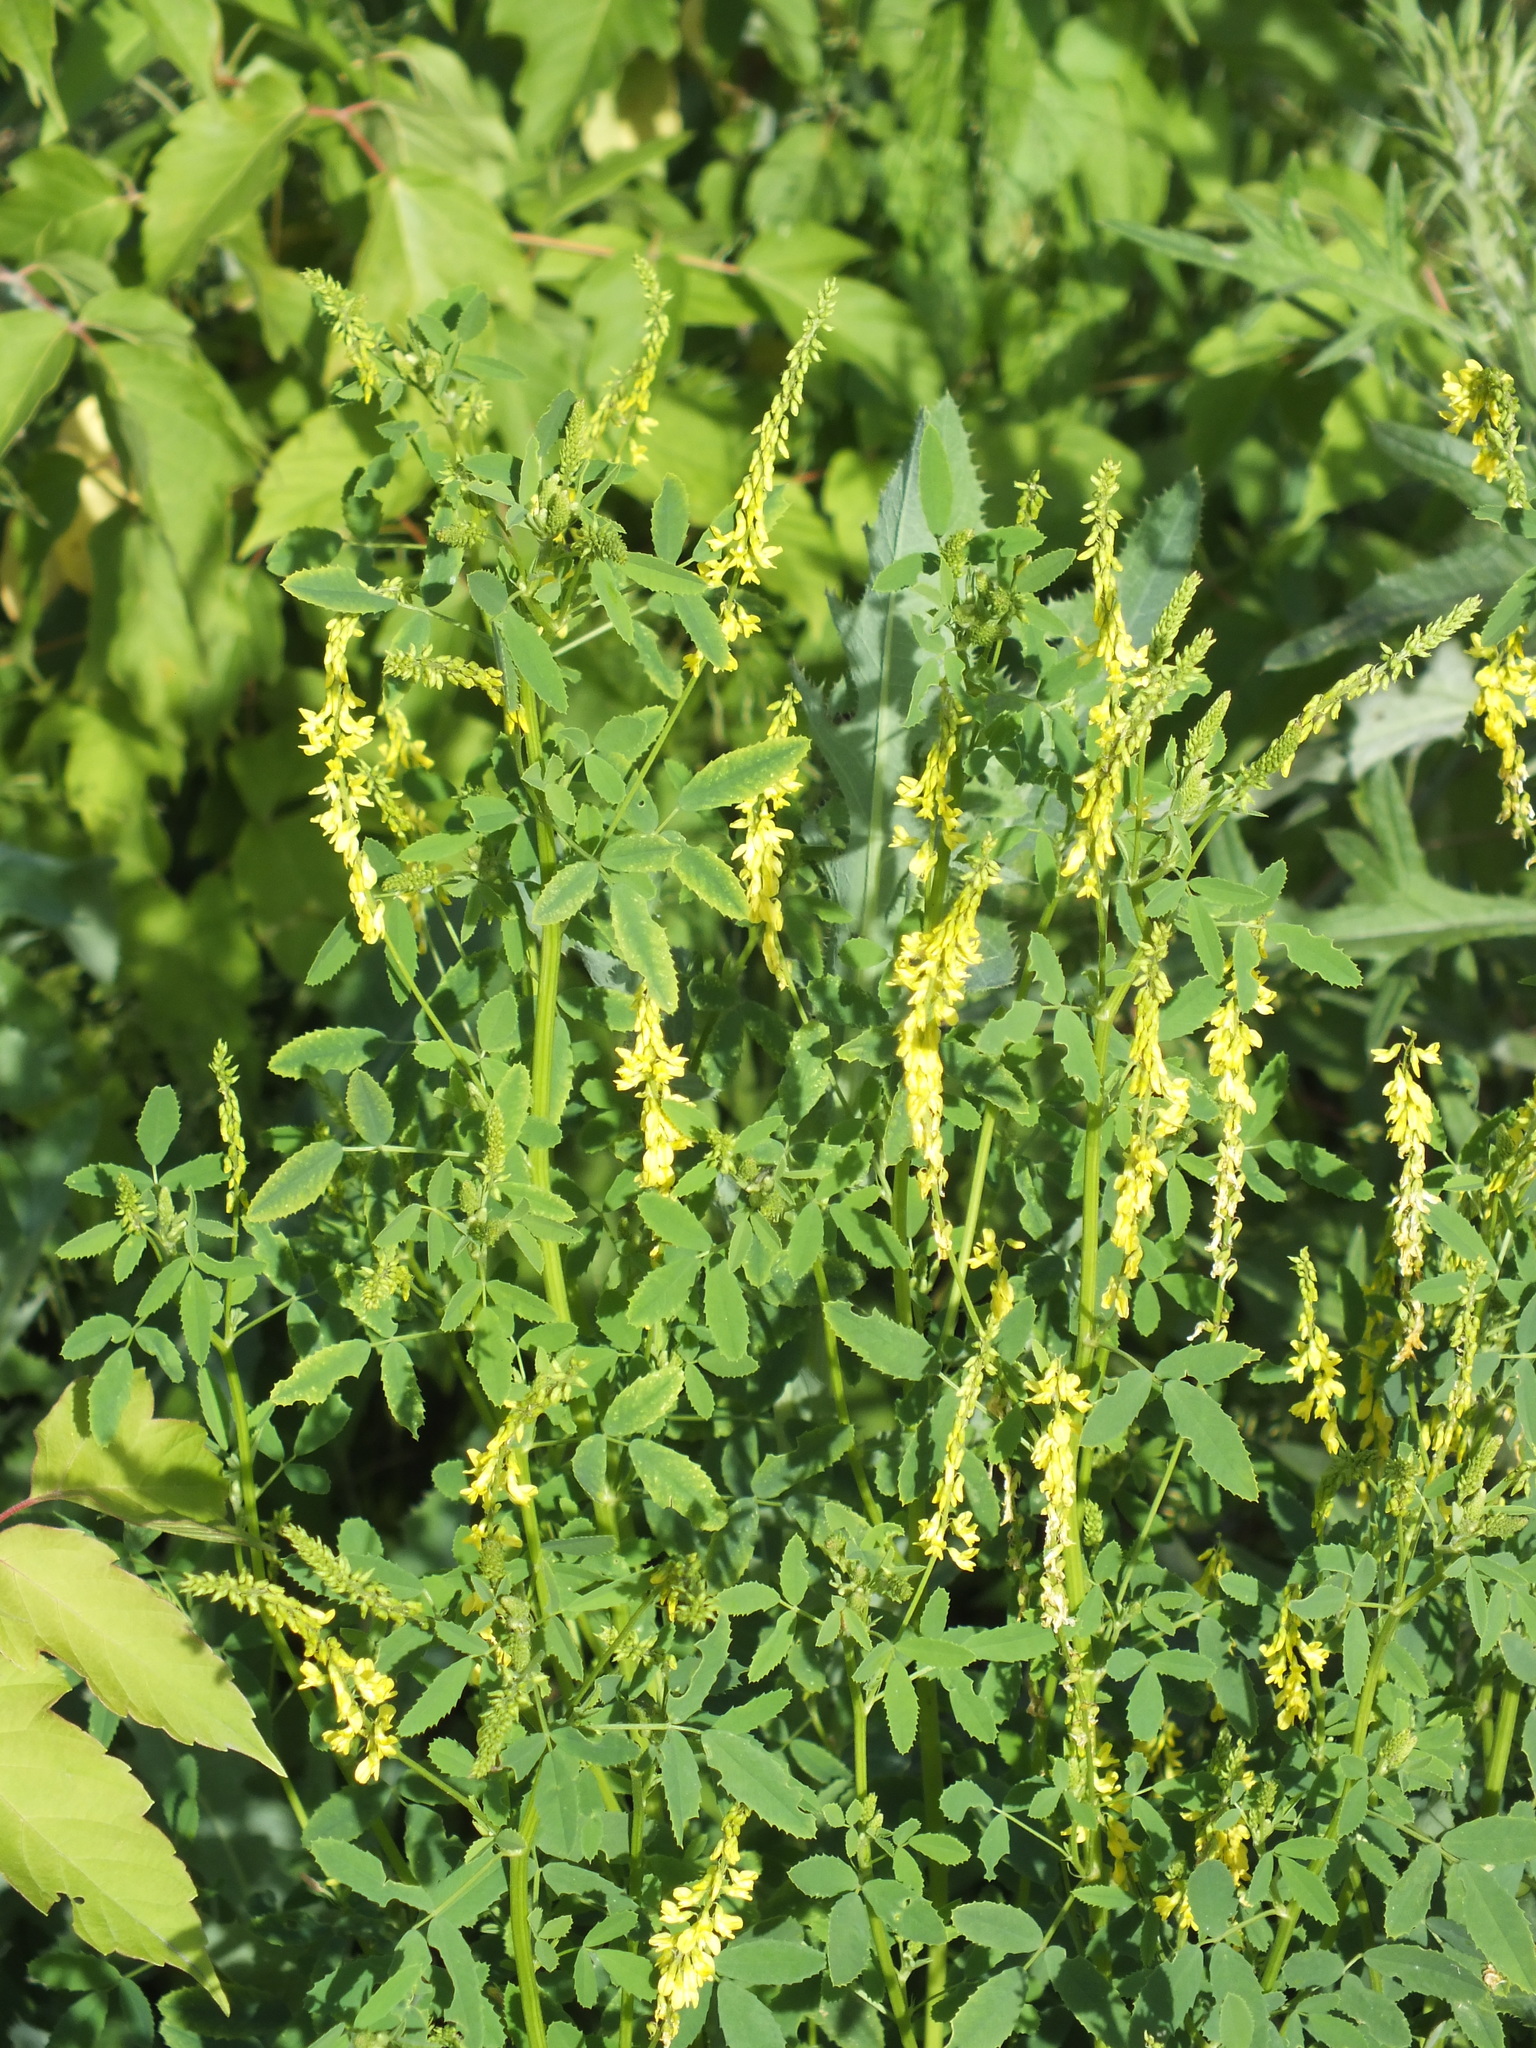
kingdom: Plantae
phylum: Tracheophyta
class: Magnoliopsida
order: Fabales
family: Fabaceae
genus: Melilotus
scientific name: Melilotus officinalis
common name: Sweetclover
